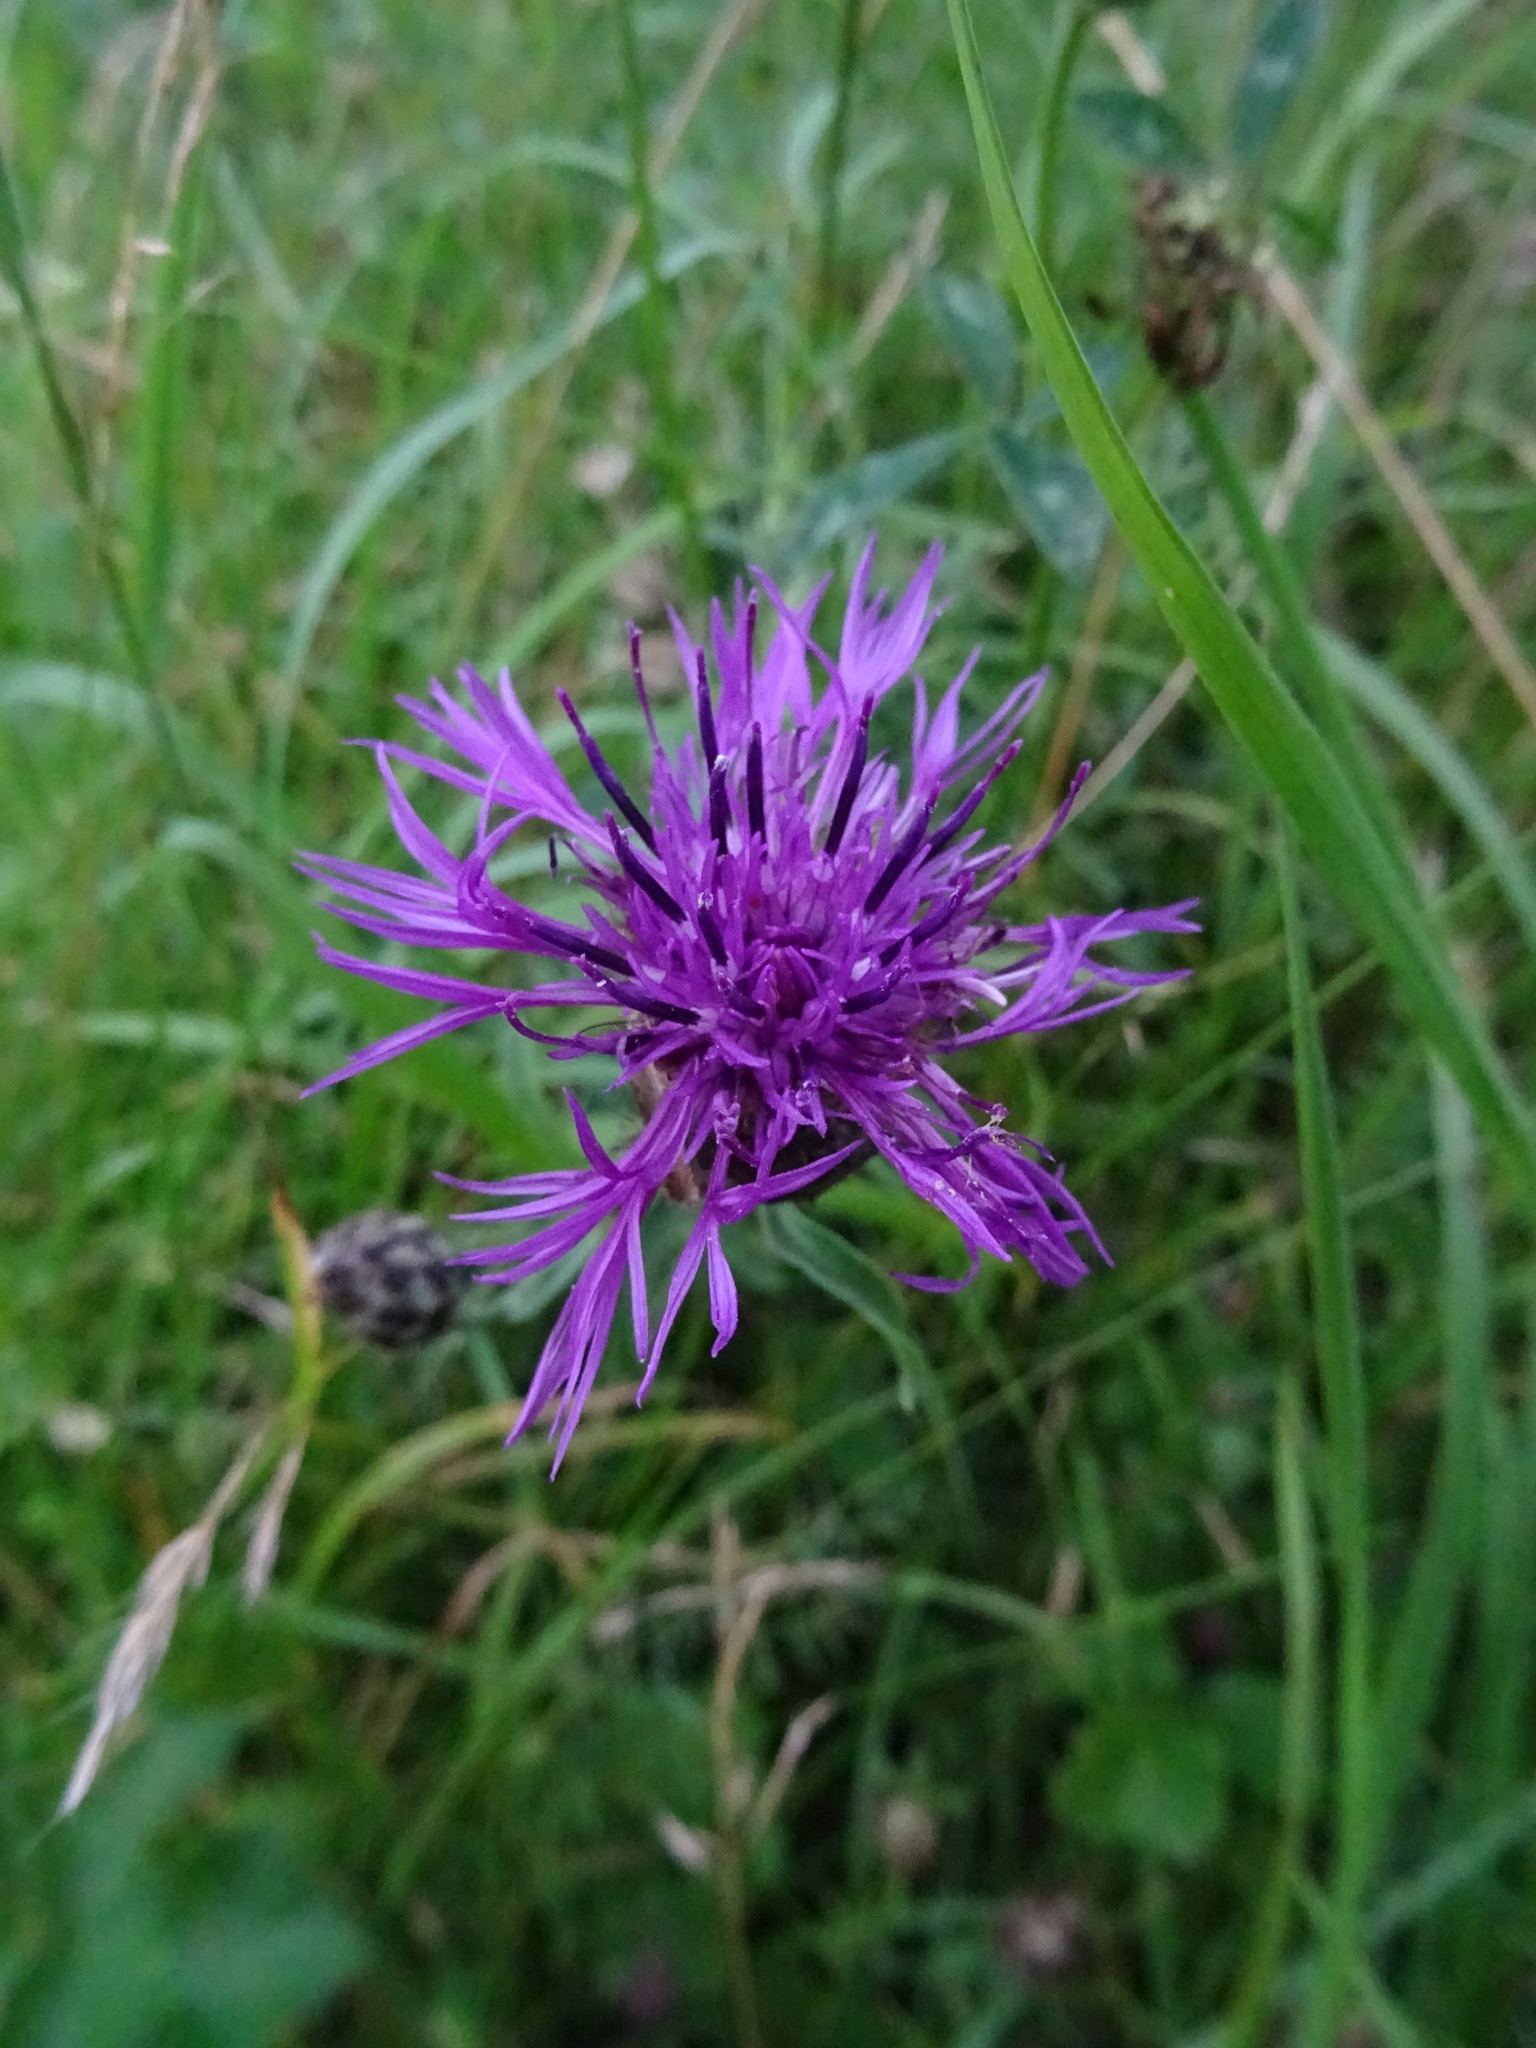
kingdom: Plantae
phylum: Tracheophyta
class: Magnoliopsida
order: Asterales
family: Asteraceae
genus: Centaurea
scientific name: Centaurea scabiosa
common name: Greater knapweed
